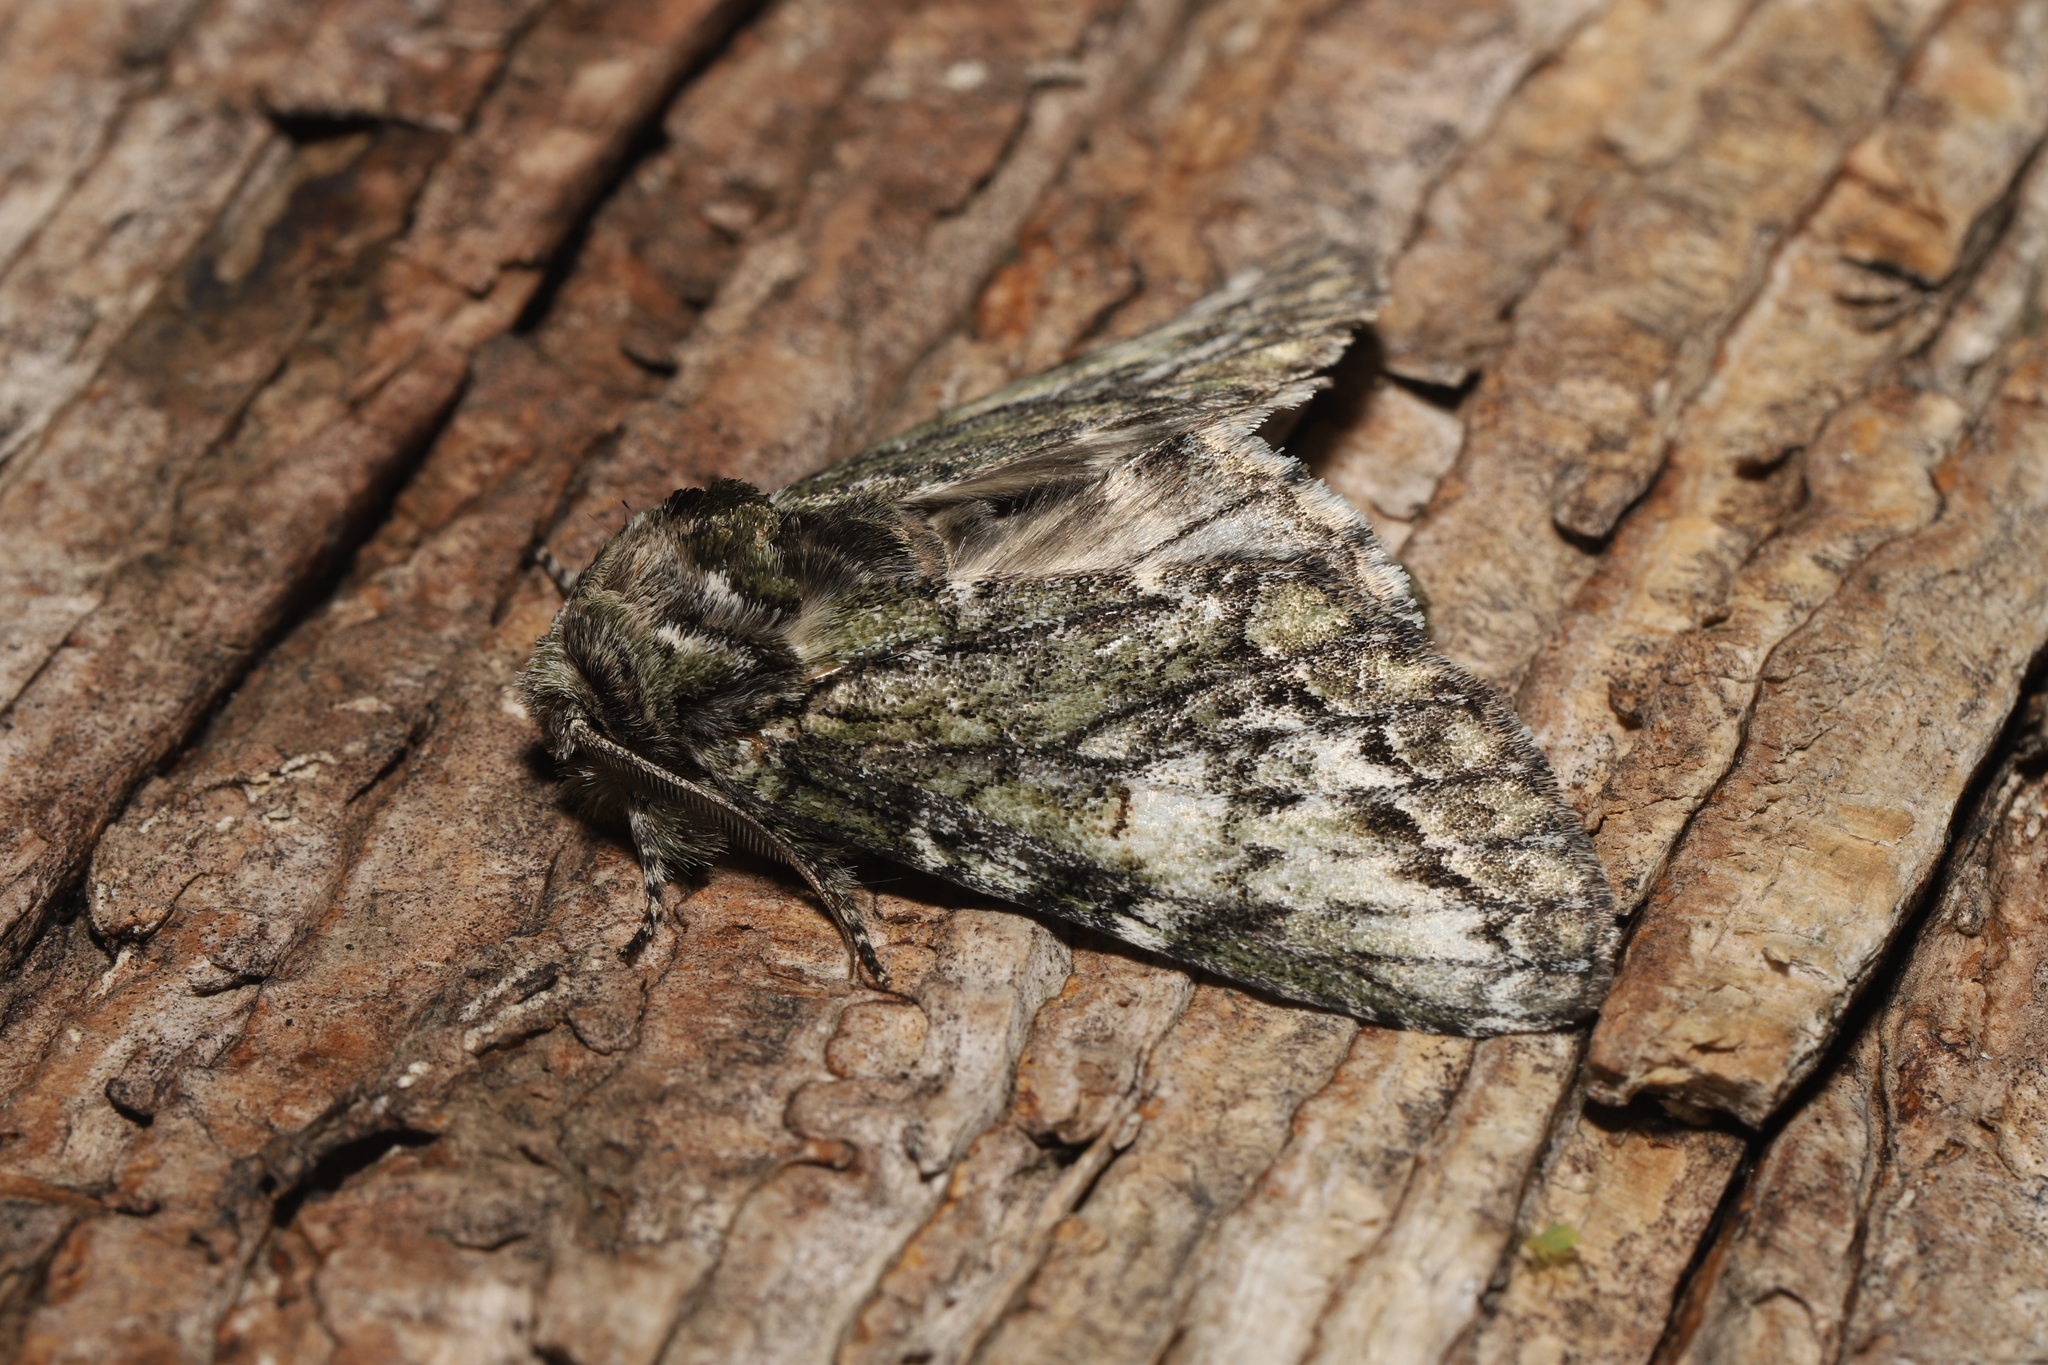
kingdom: Animalia
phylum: Arthropoda
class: Insecta
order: Lepidoptera
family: Notodontidae
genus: Heterocampa
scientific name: Heterocampa
